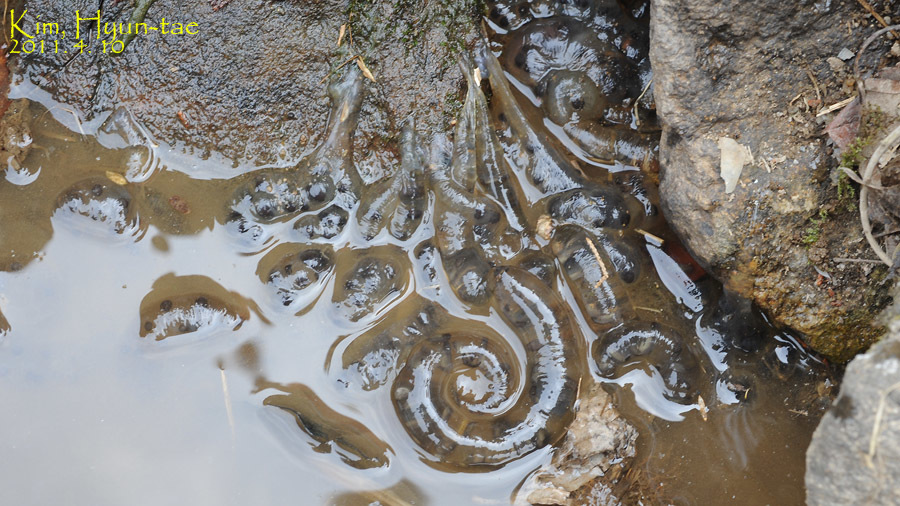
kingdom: Animalia
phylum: Chordata
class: Amphibia
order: Caudata
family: Hynobiidae
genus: Hynobius
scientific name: Hynobius leechii
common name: Gensan salamander
